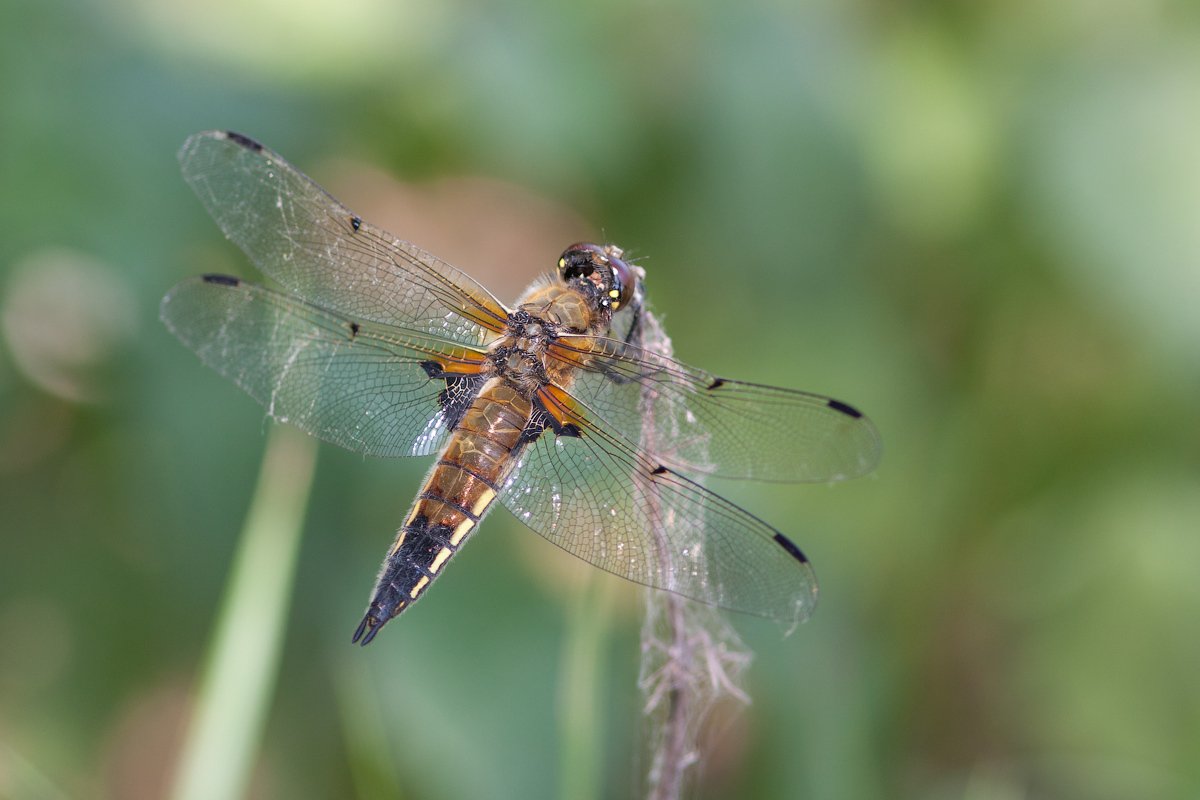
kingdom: Animalia
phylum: Arthropoda
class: Insecta
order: Odonata
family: Libellulidae
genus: Libellula
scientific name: Libellula quadrimaculata
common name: Four-spotted chaser
